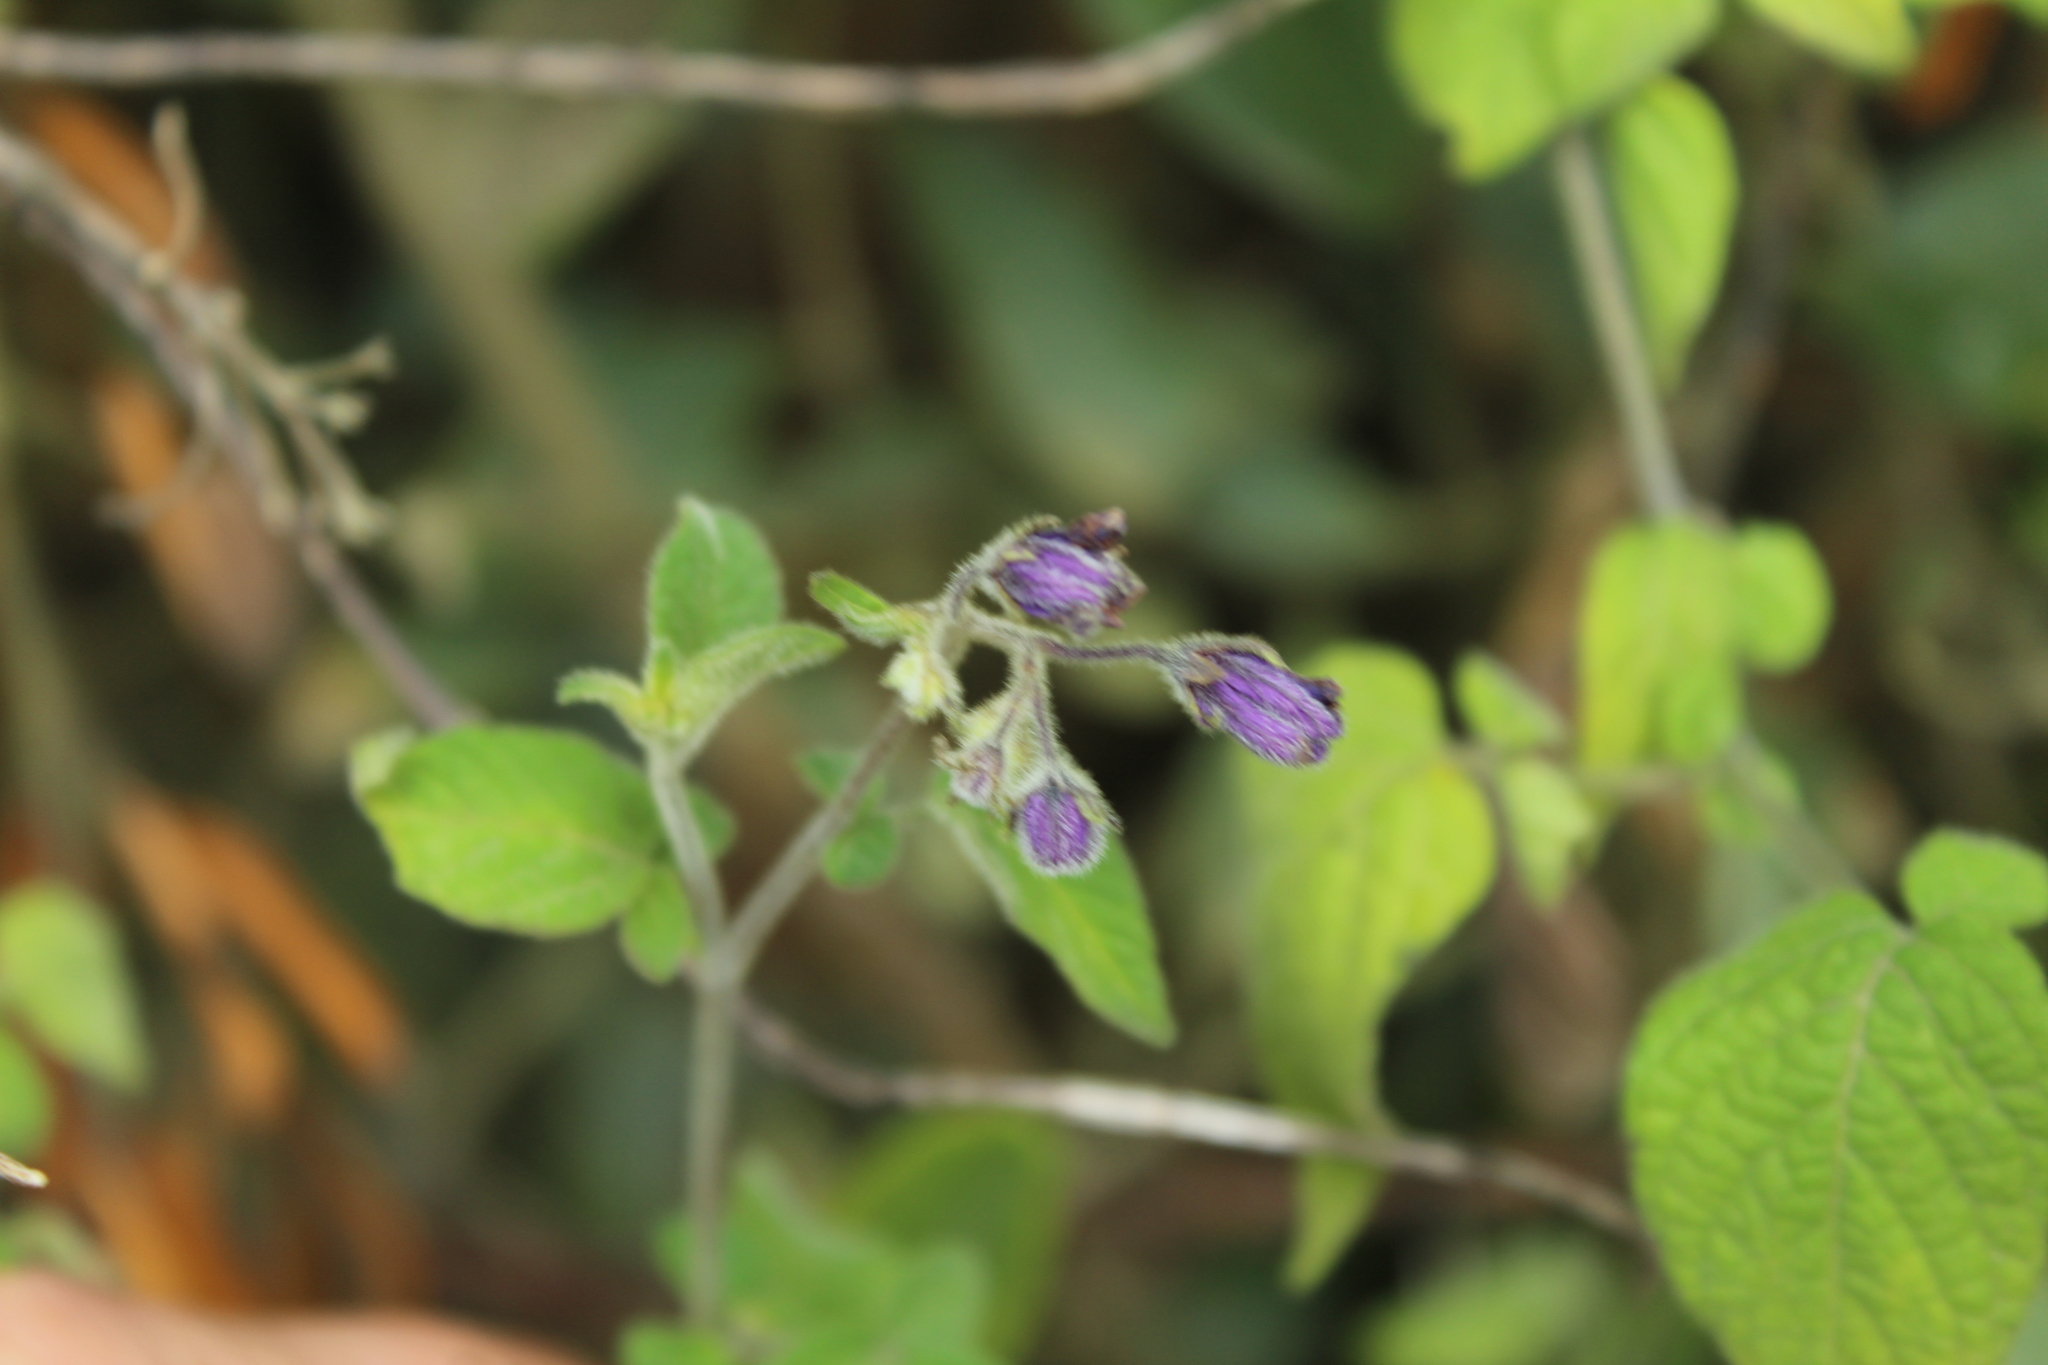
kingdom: Plantae
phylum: Tracheophyta
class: Magnoliopsida
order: Solanales
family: Solanaceae
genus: Solanum
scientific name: Solanum caripense
